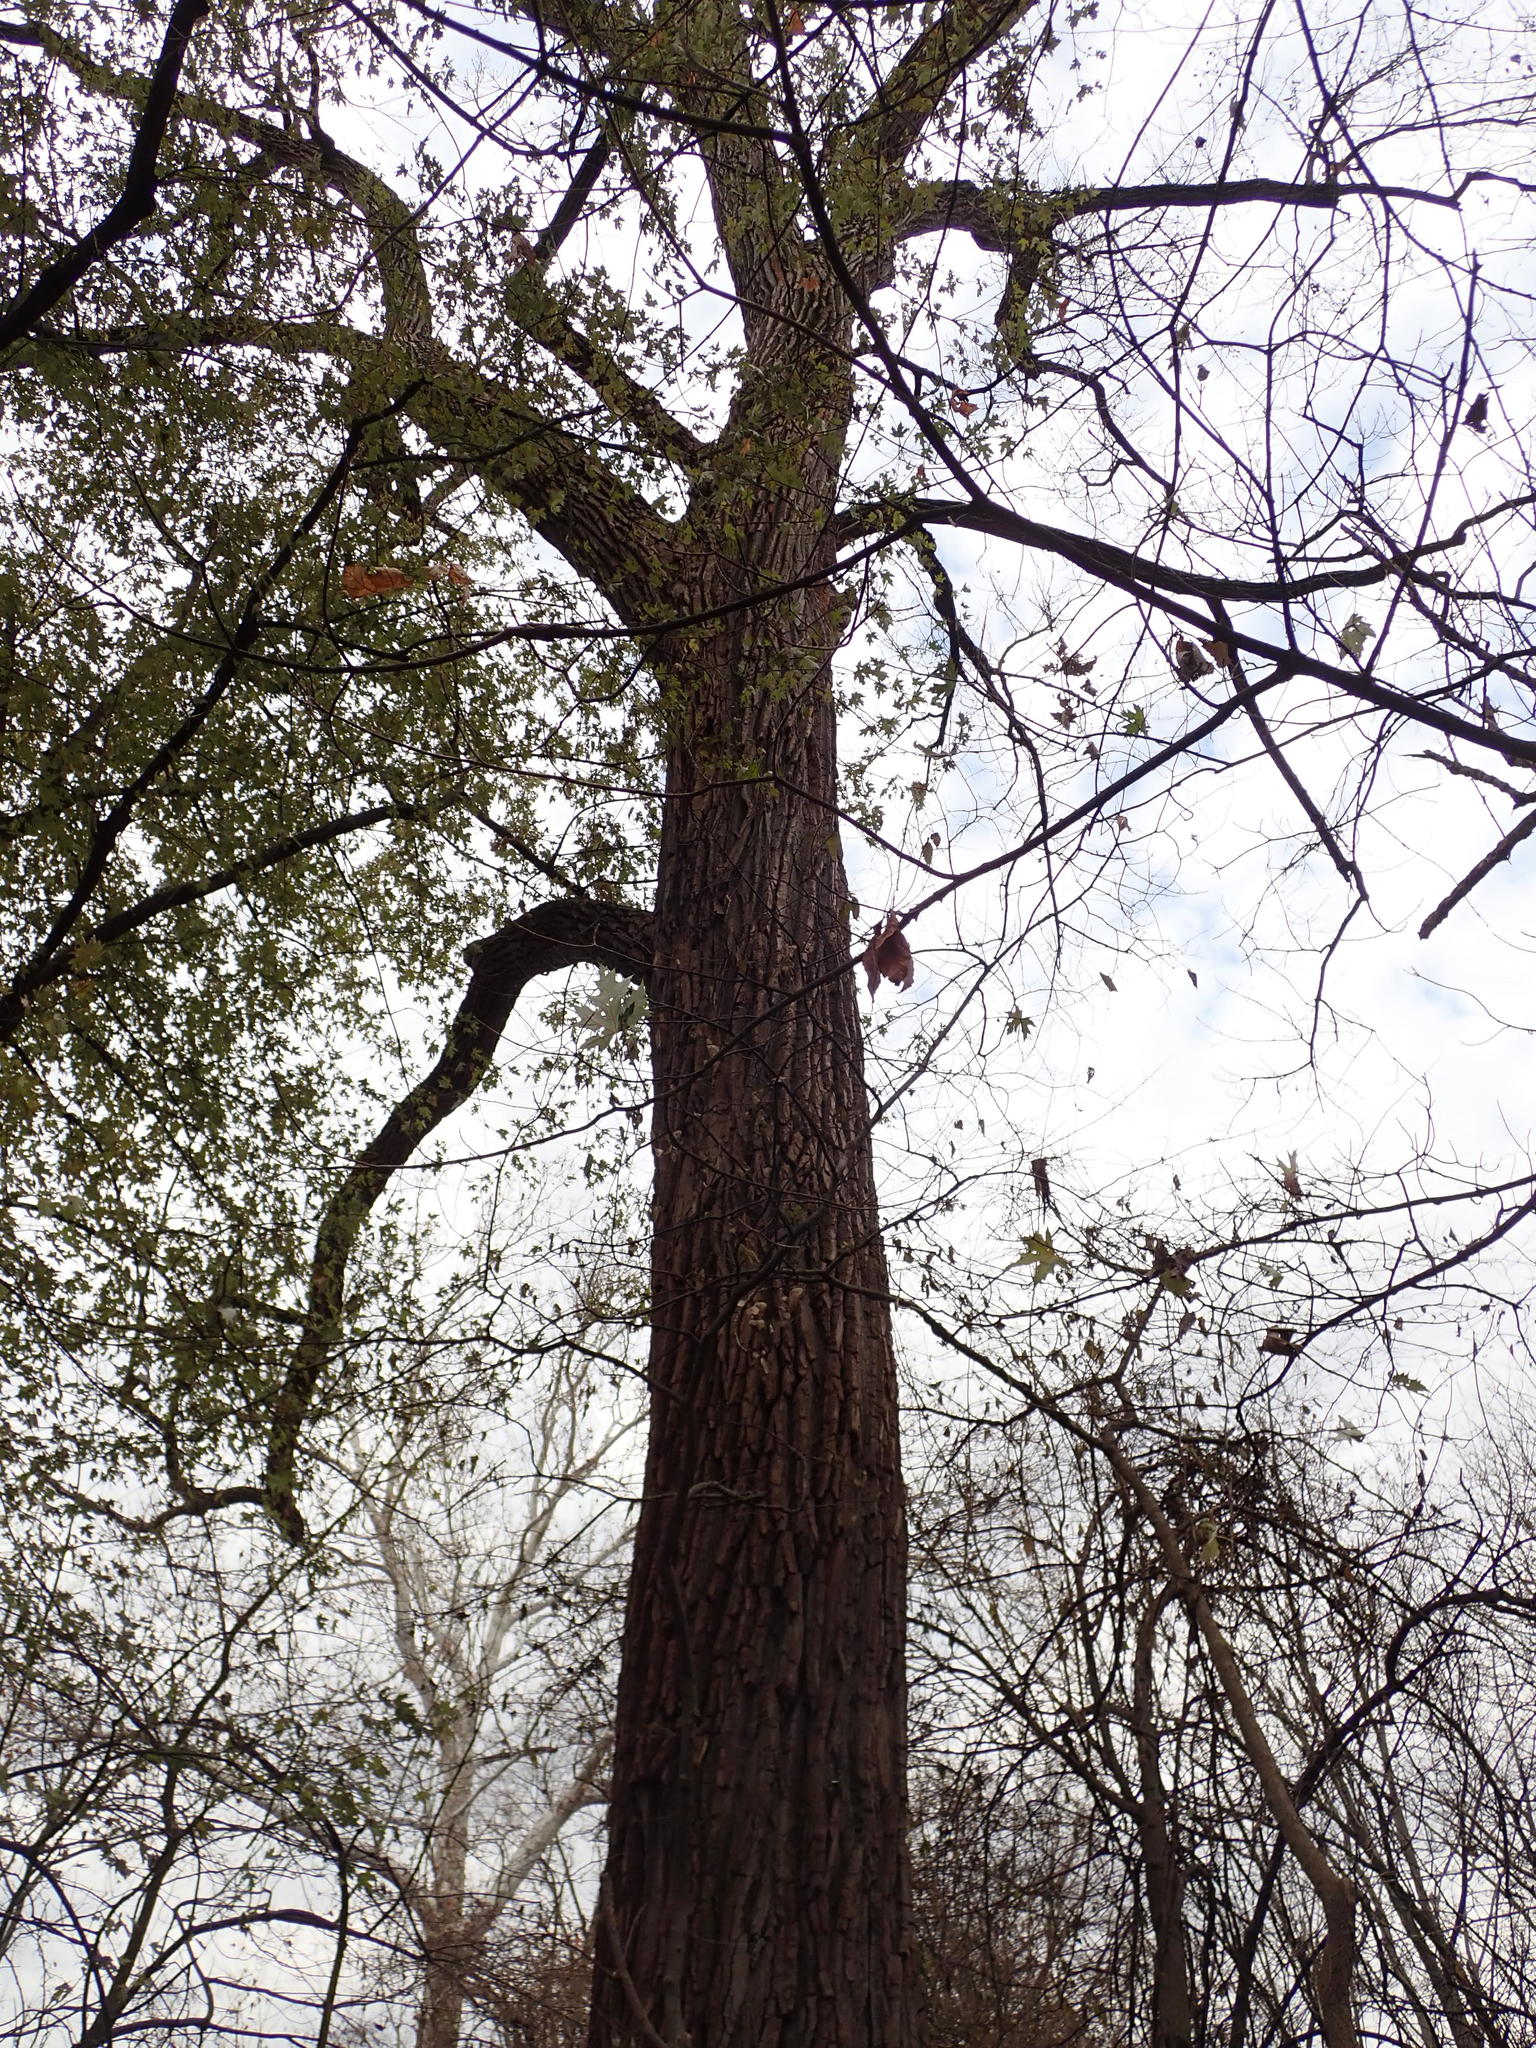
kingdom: Plantae
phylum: Tracheophyta
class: Magnoliopsida
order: Malpighiales
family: Salicaceae
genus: Populus
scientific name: Populus deltoides
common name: Eastern cottonwood
